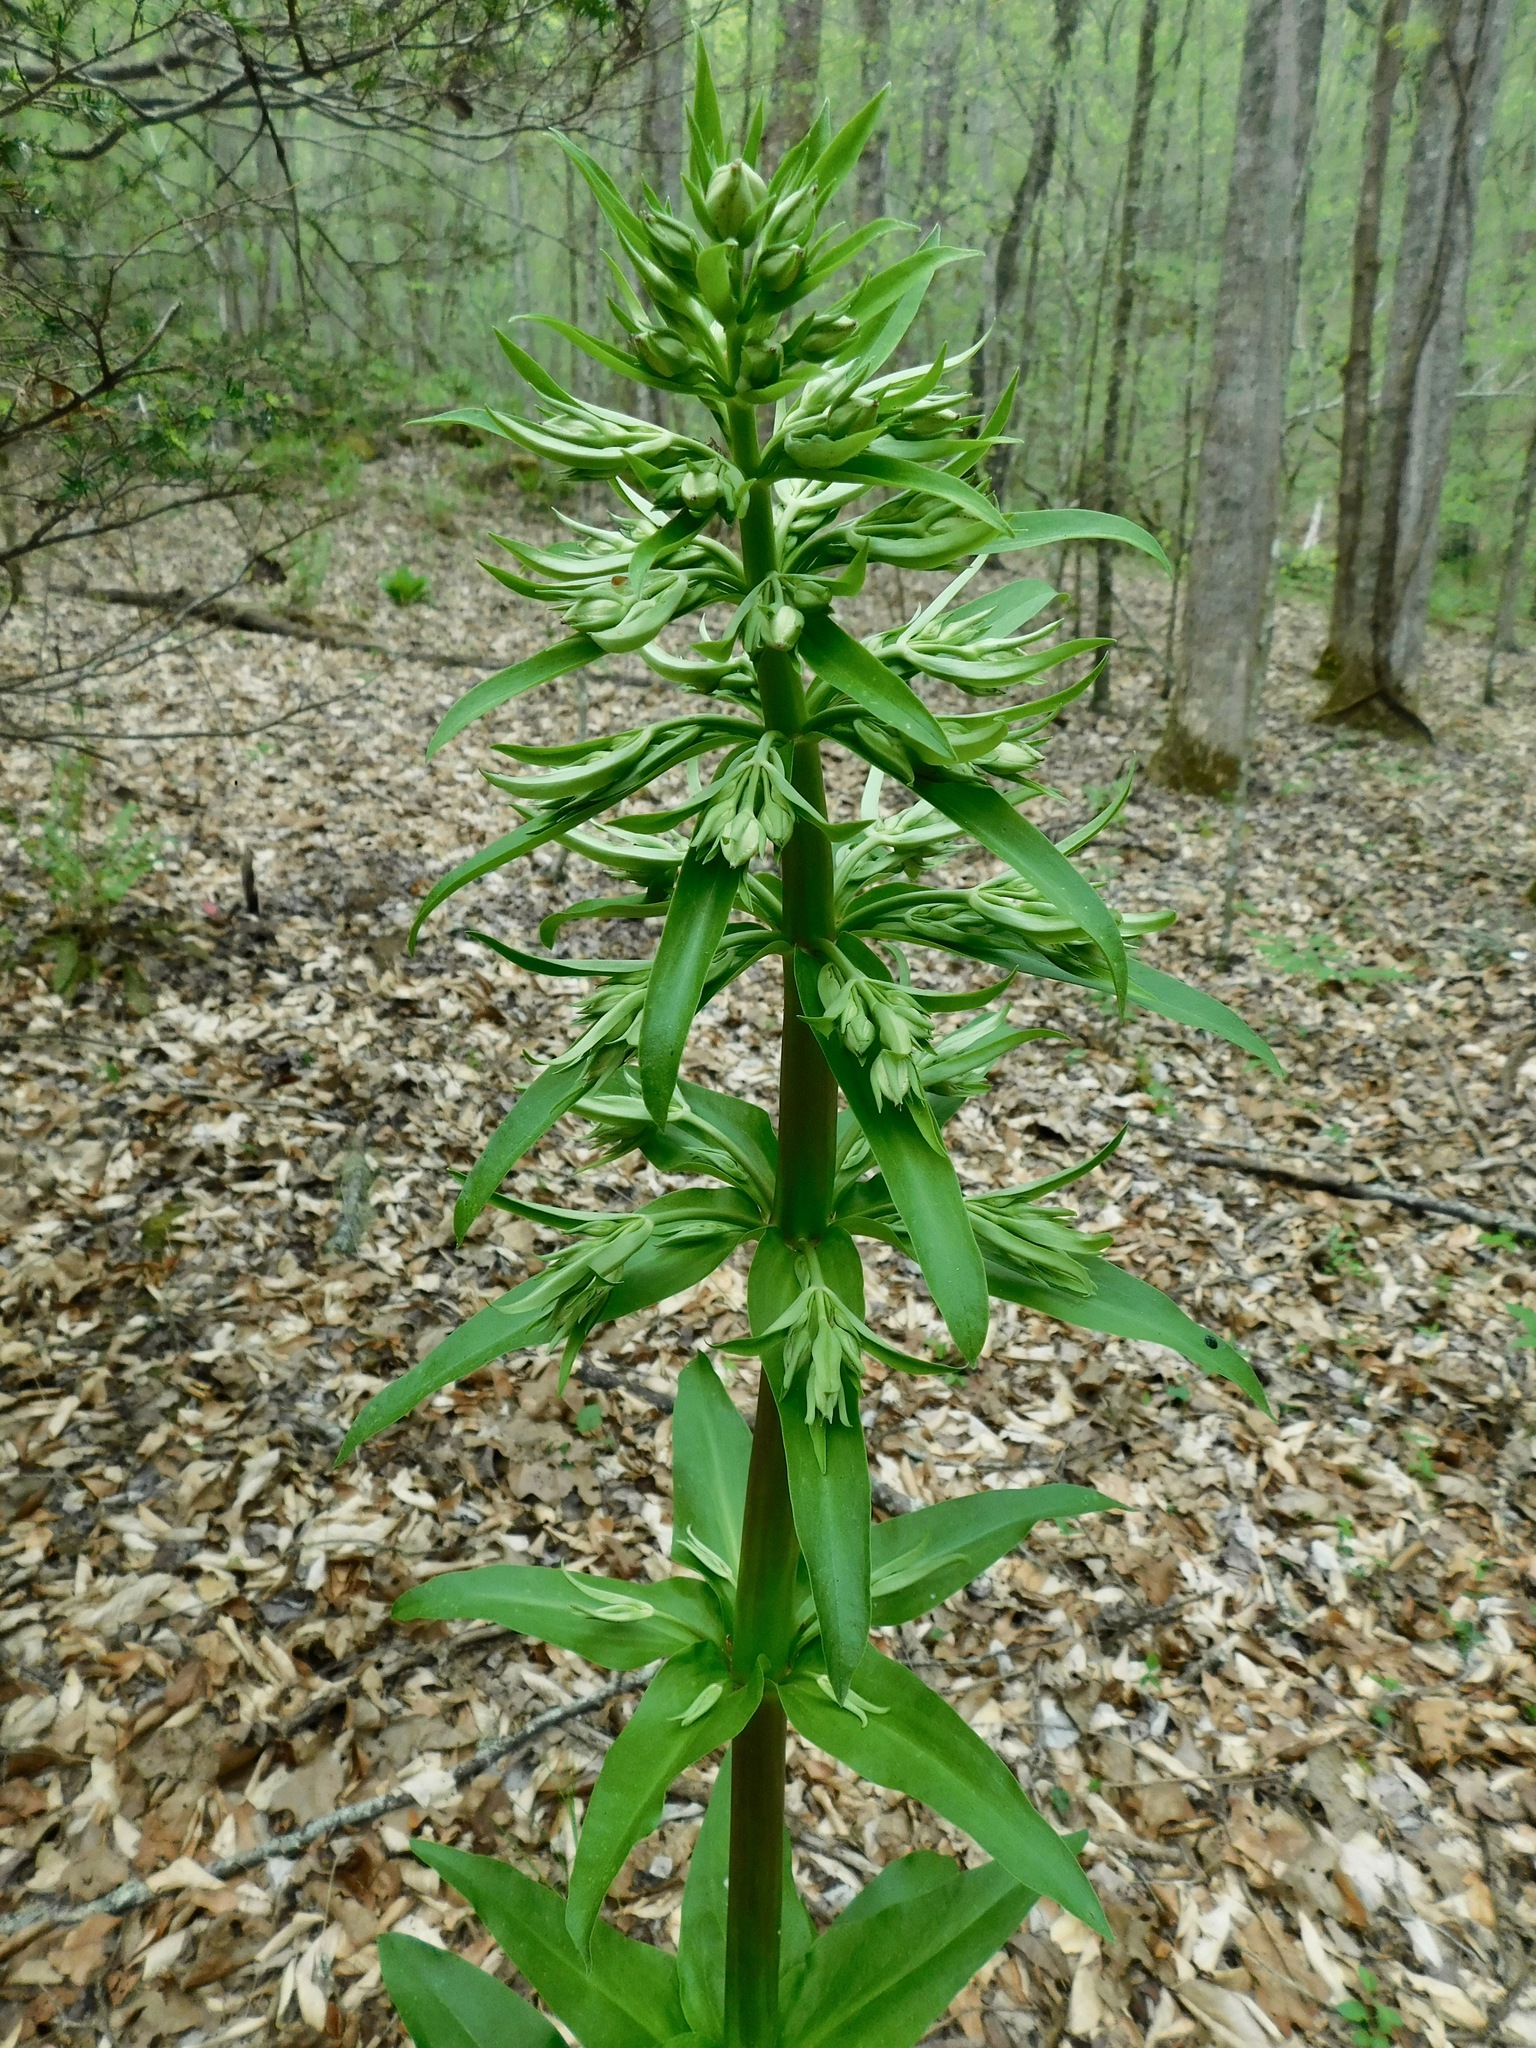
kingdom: Plantae
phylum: Tracheophyta
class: Magnoliopsida
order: Gentianales
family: Gentianaceae
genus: Frasera
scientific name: Frasera caroliniensis
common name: American columbo
